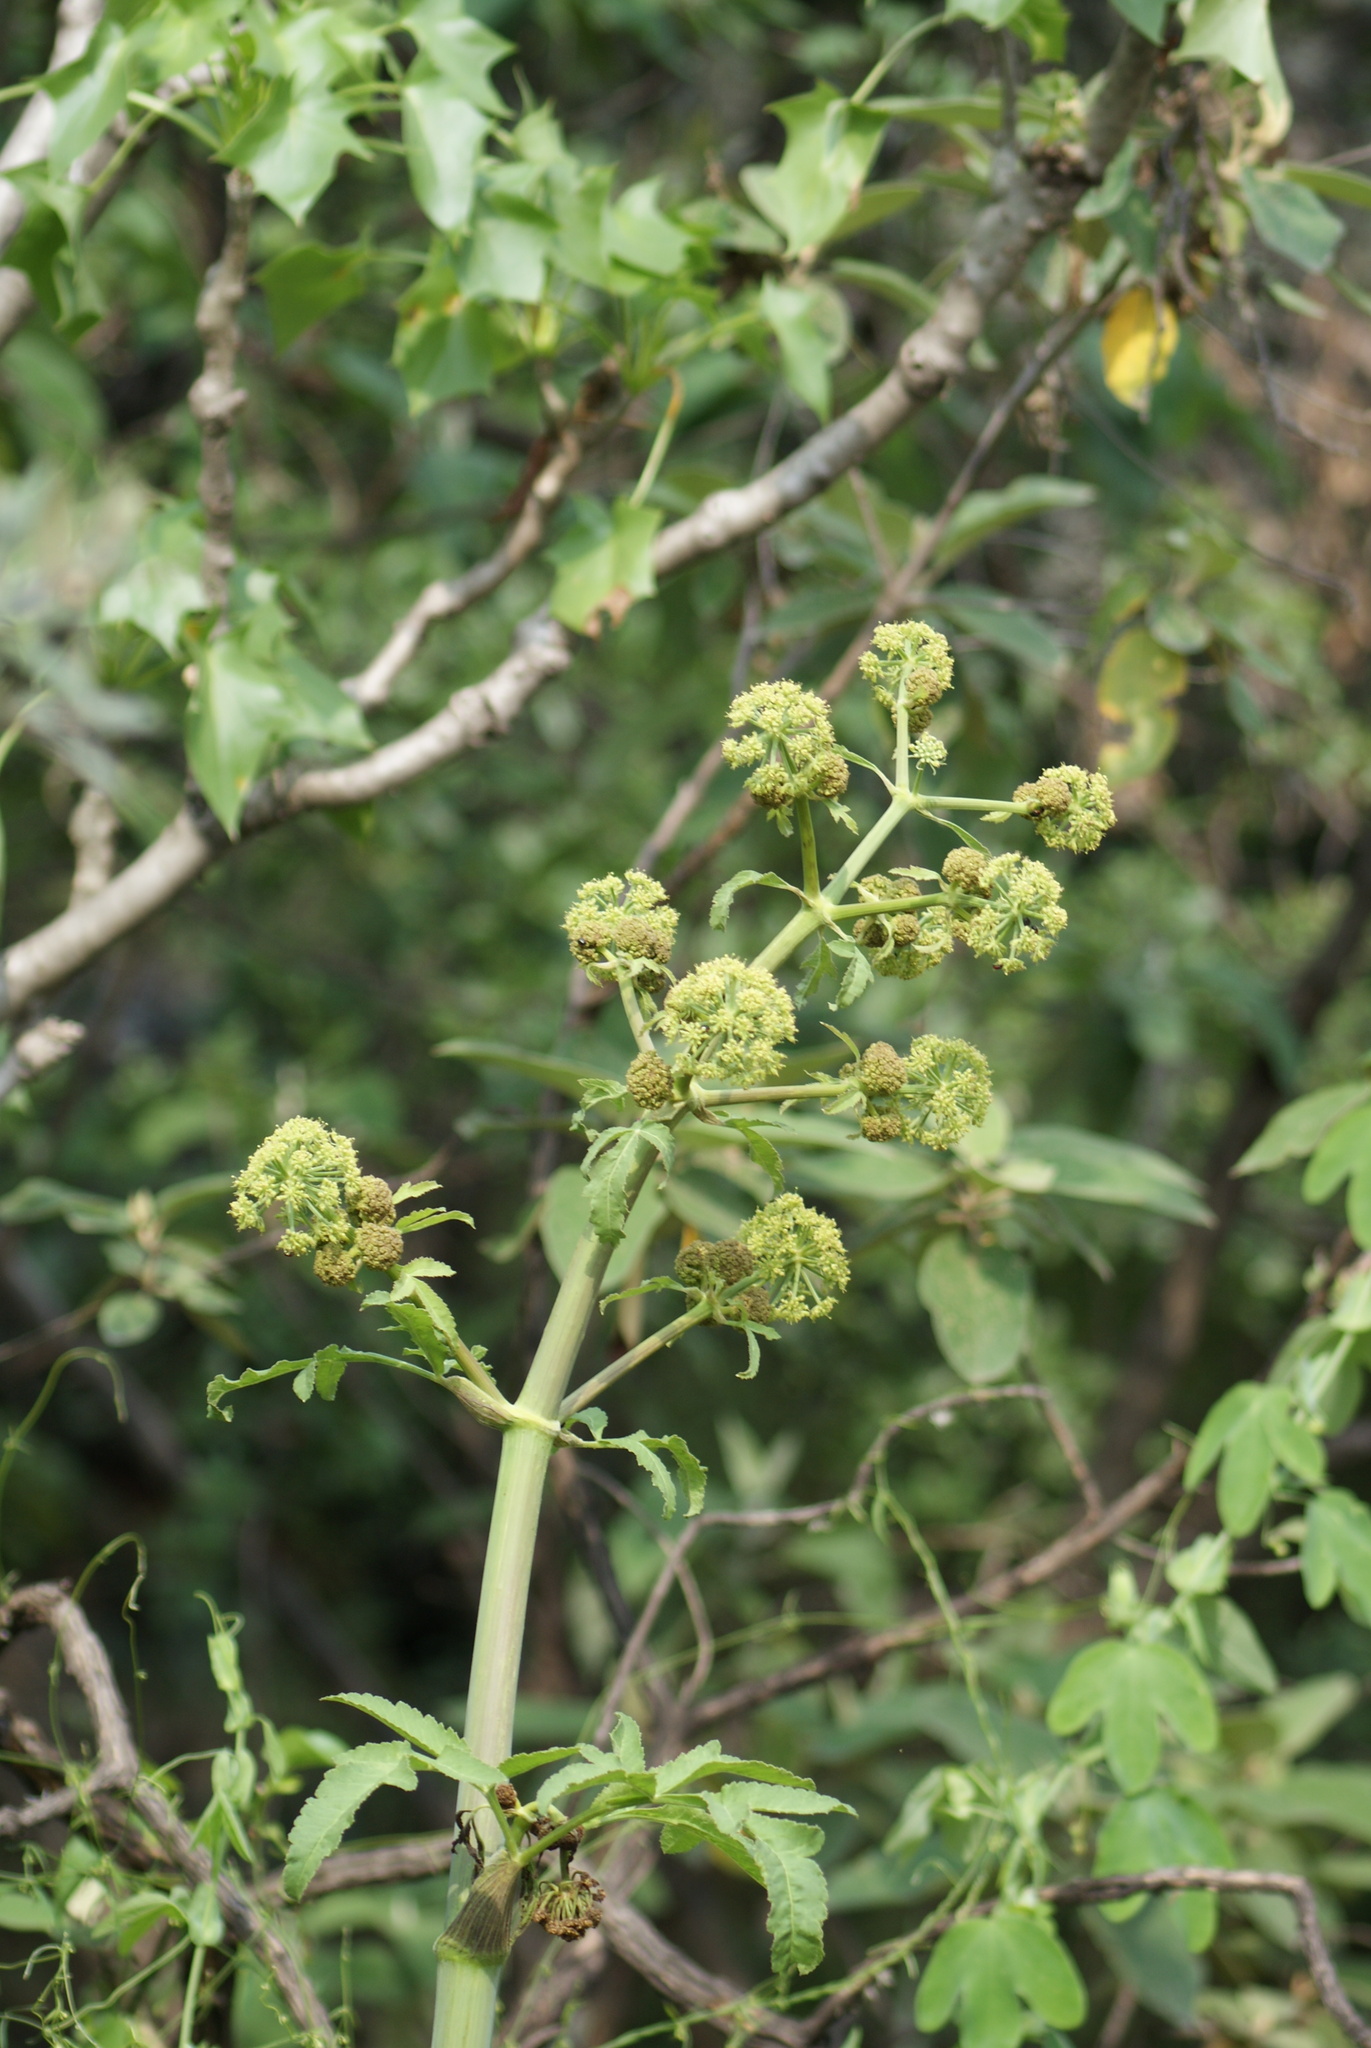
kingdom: Plantae
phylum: Tracheophyta
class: Magnoliopsida
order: Apiales
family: Apiaceae
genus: Prionosciadium
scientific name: Prionosciadium thapsoides
